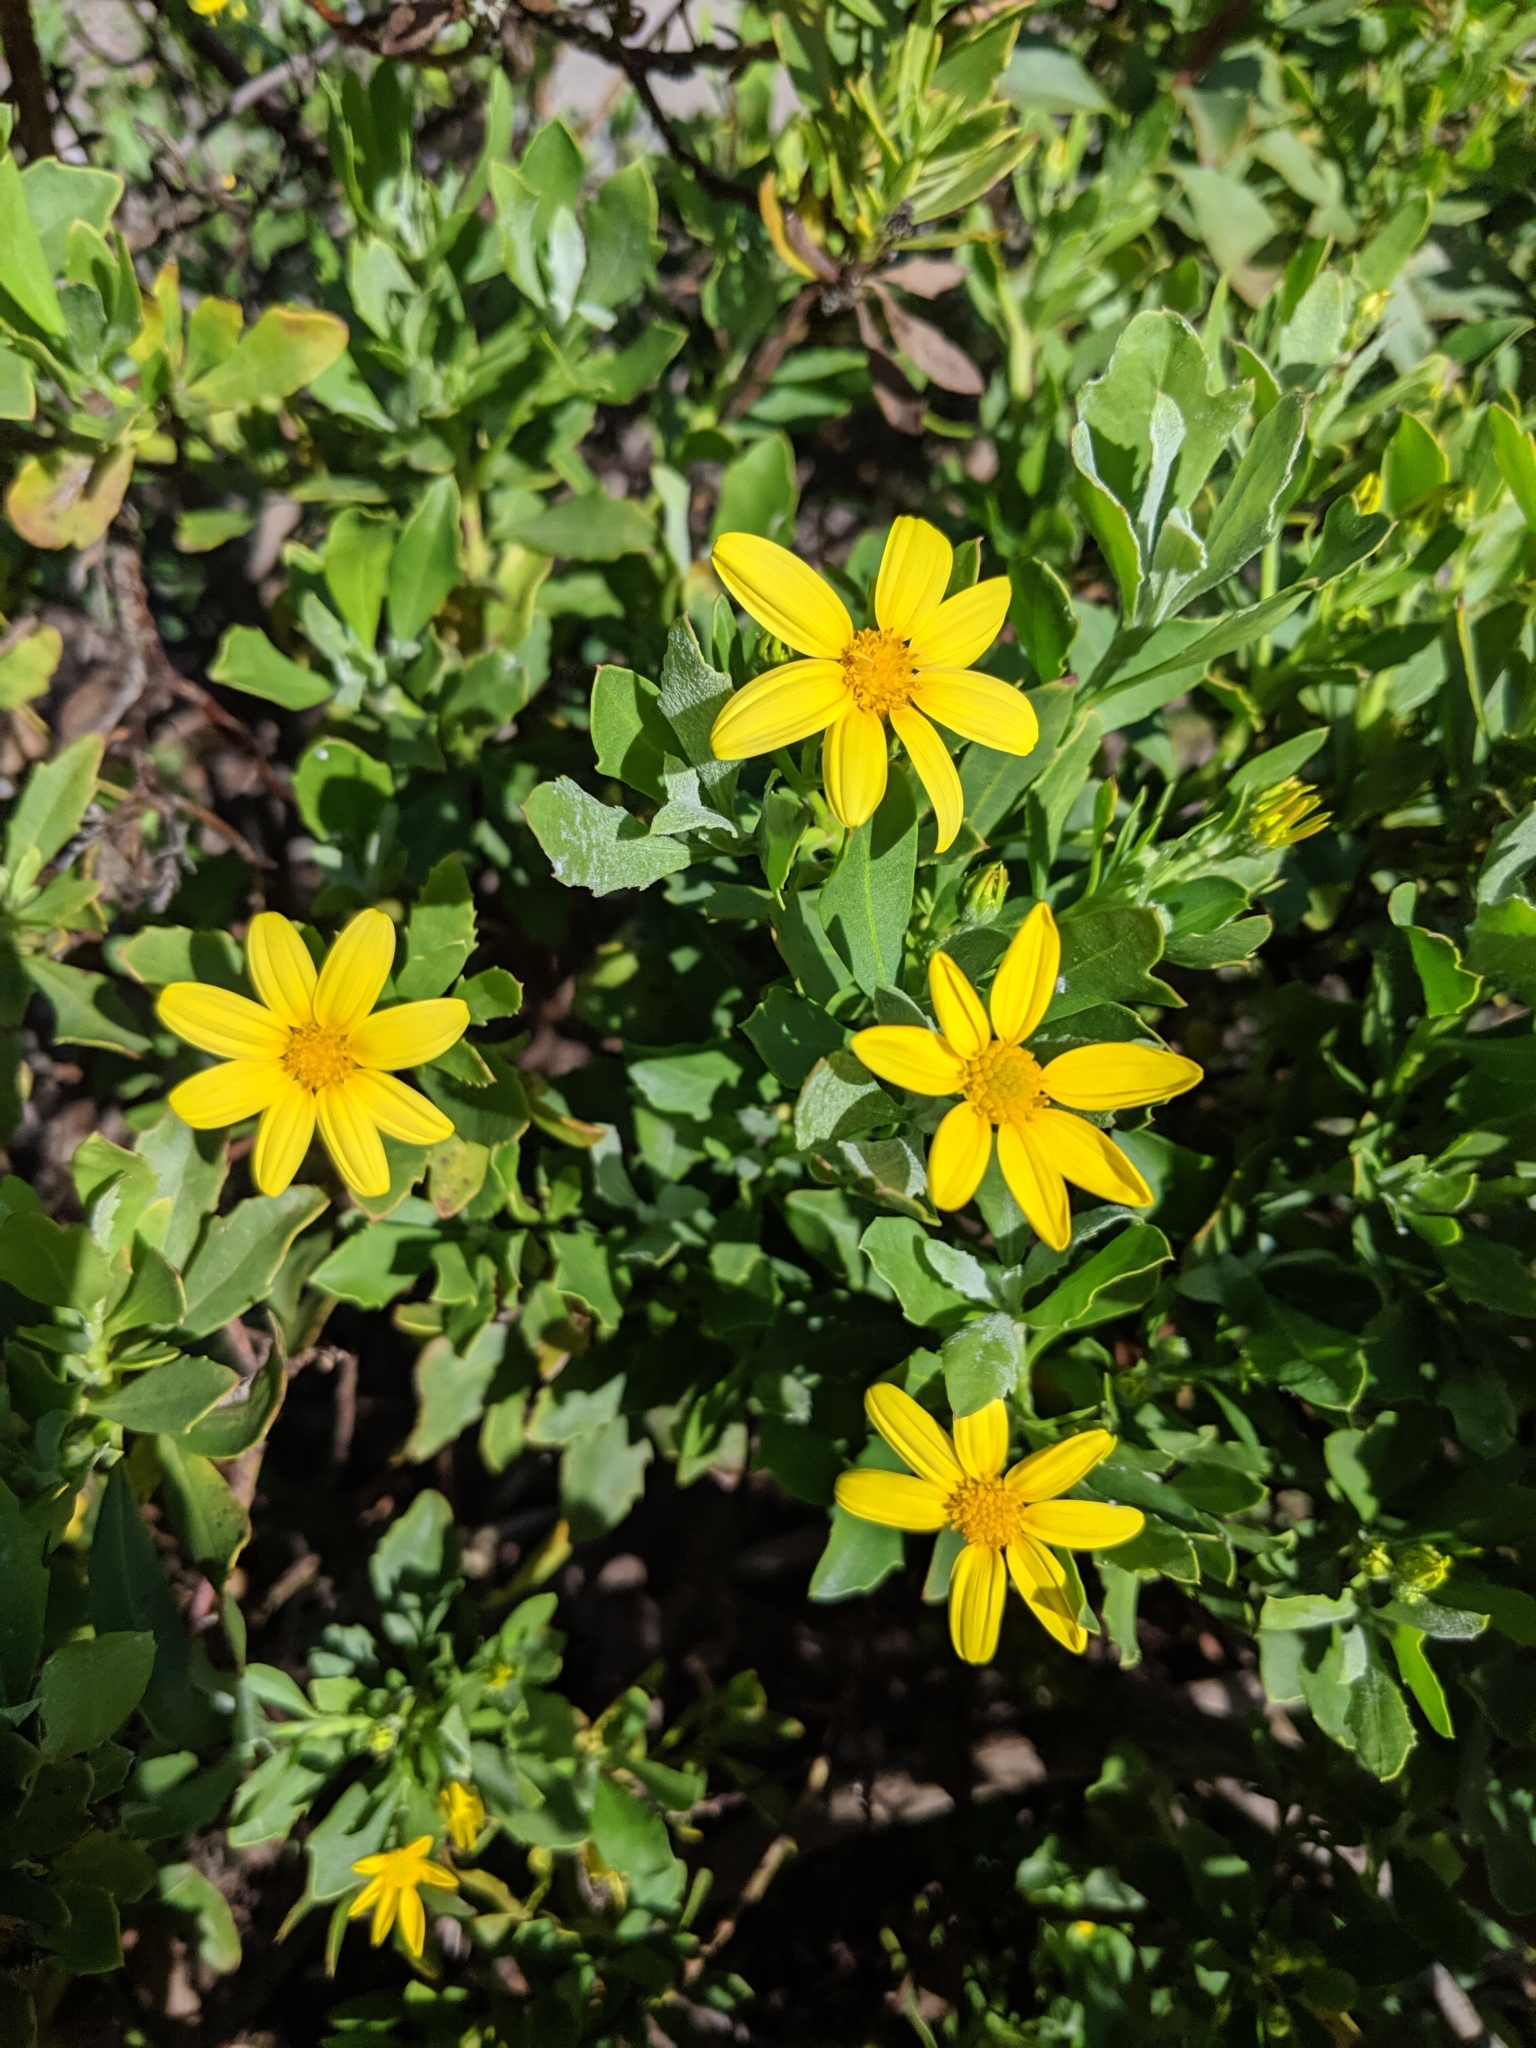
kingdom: Plantae
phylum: Tracheophyta
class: Magnoliopsida
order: Asterales
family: Asteraceae
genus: Osteospermum
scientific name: Osteospermum moniliferum
